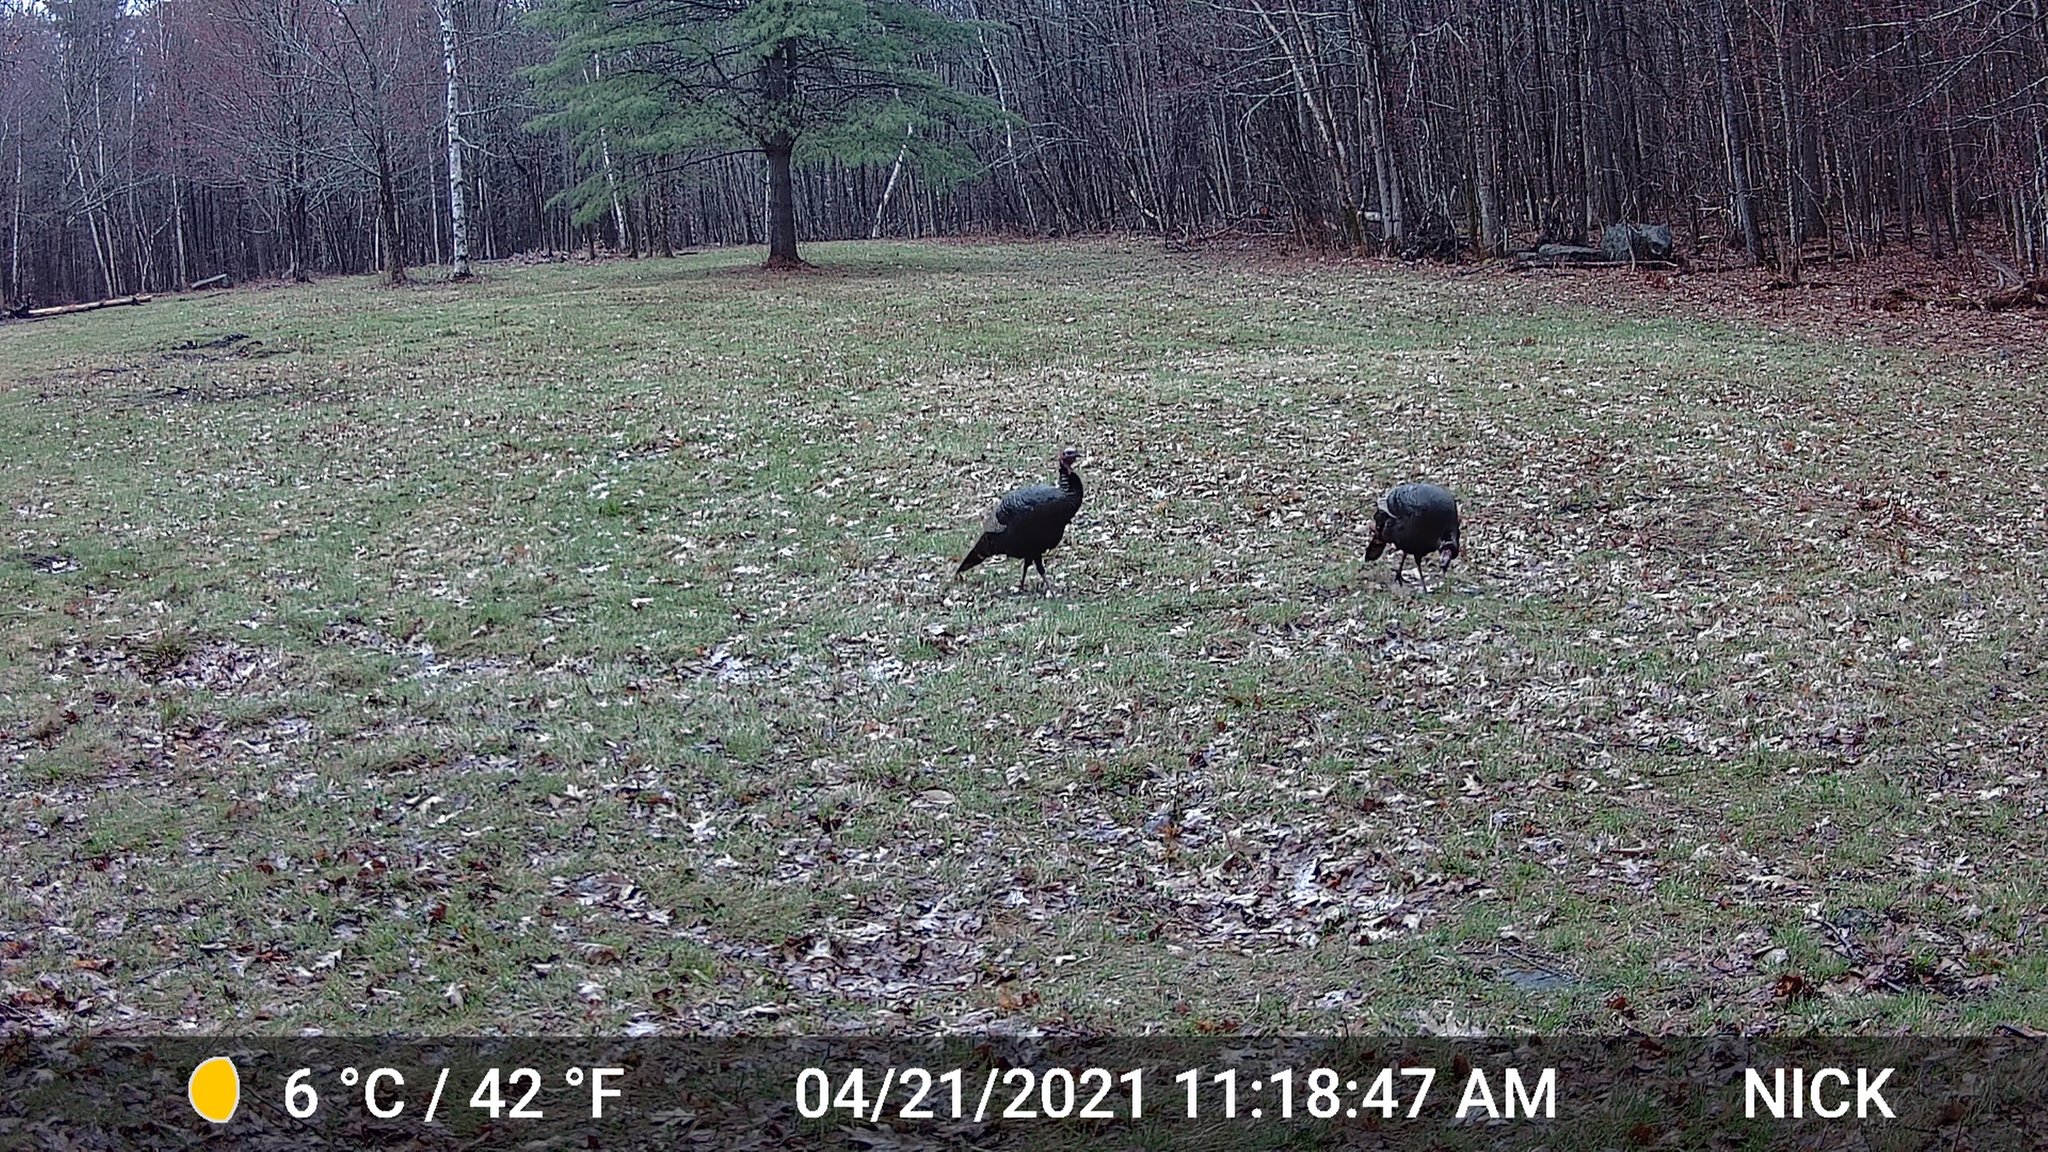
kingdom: Animalia
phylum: Chordata
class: Aves
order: Galliformes
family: Phasianidae
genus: Meleagris
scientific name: Meleagris gallopavo
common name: Wild turkey
